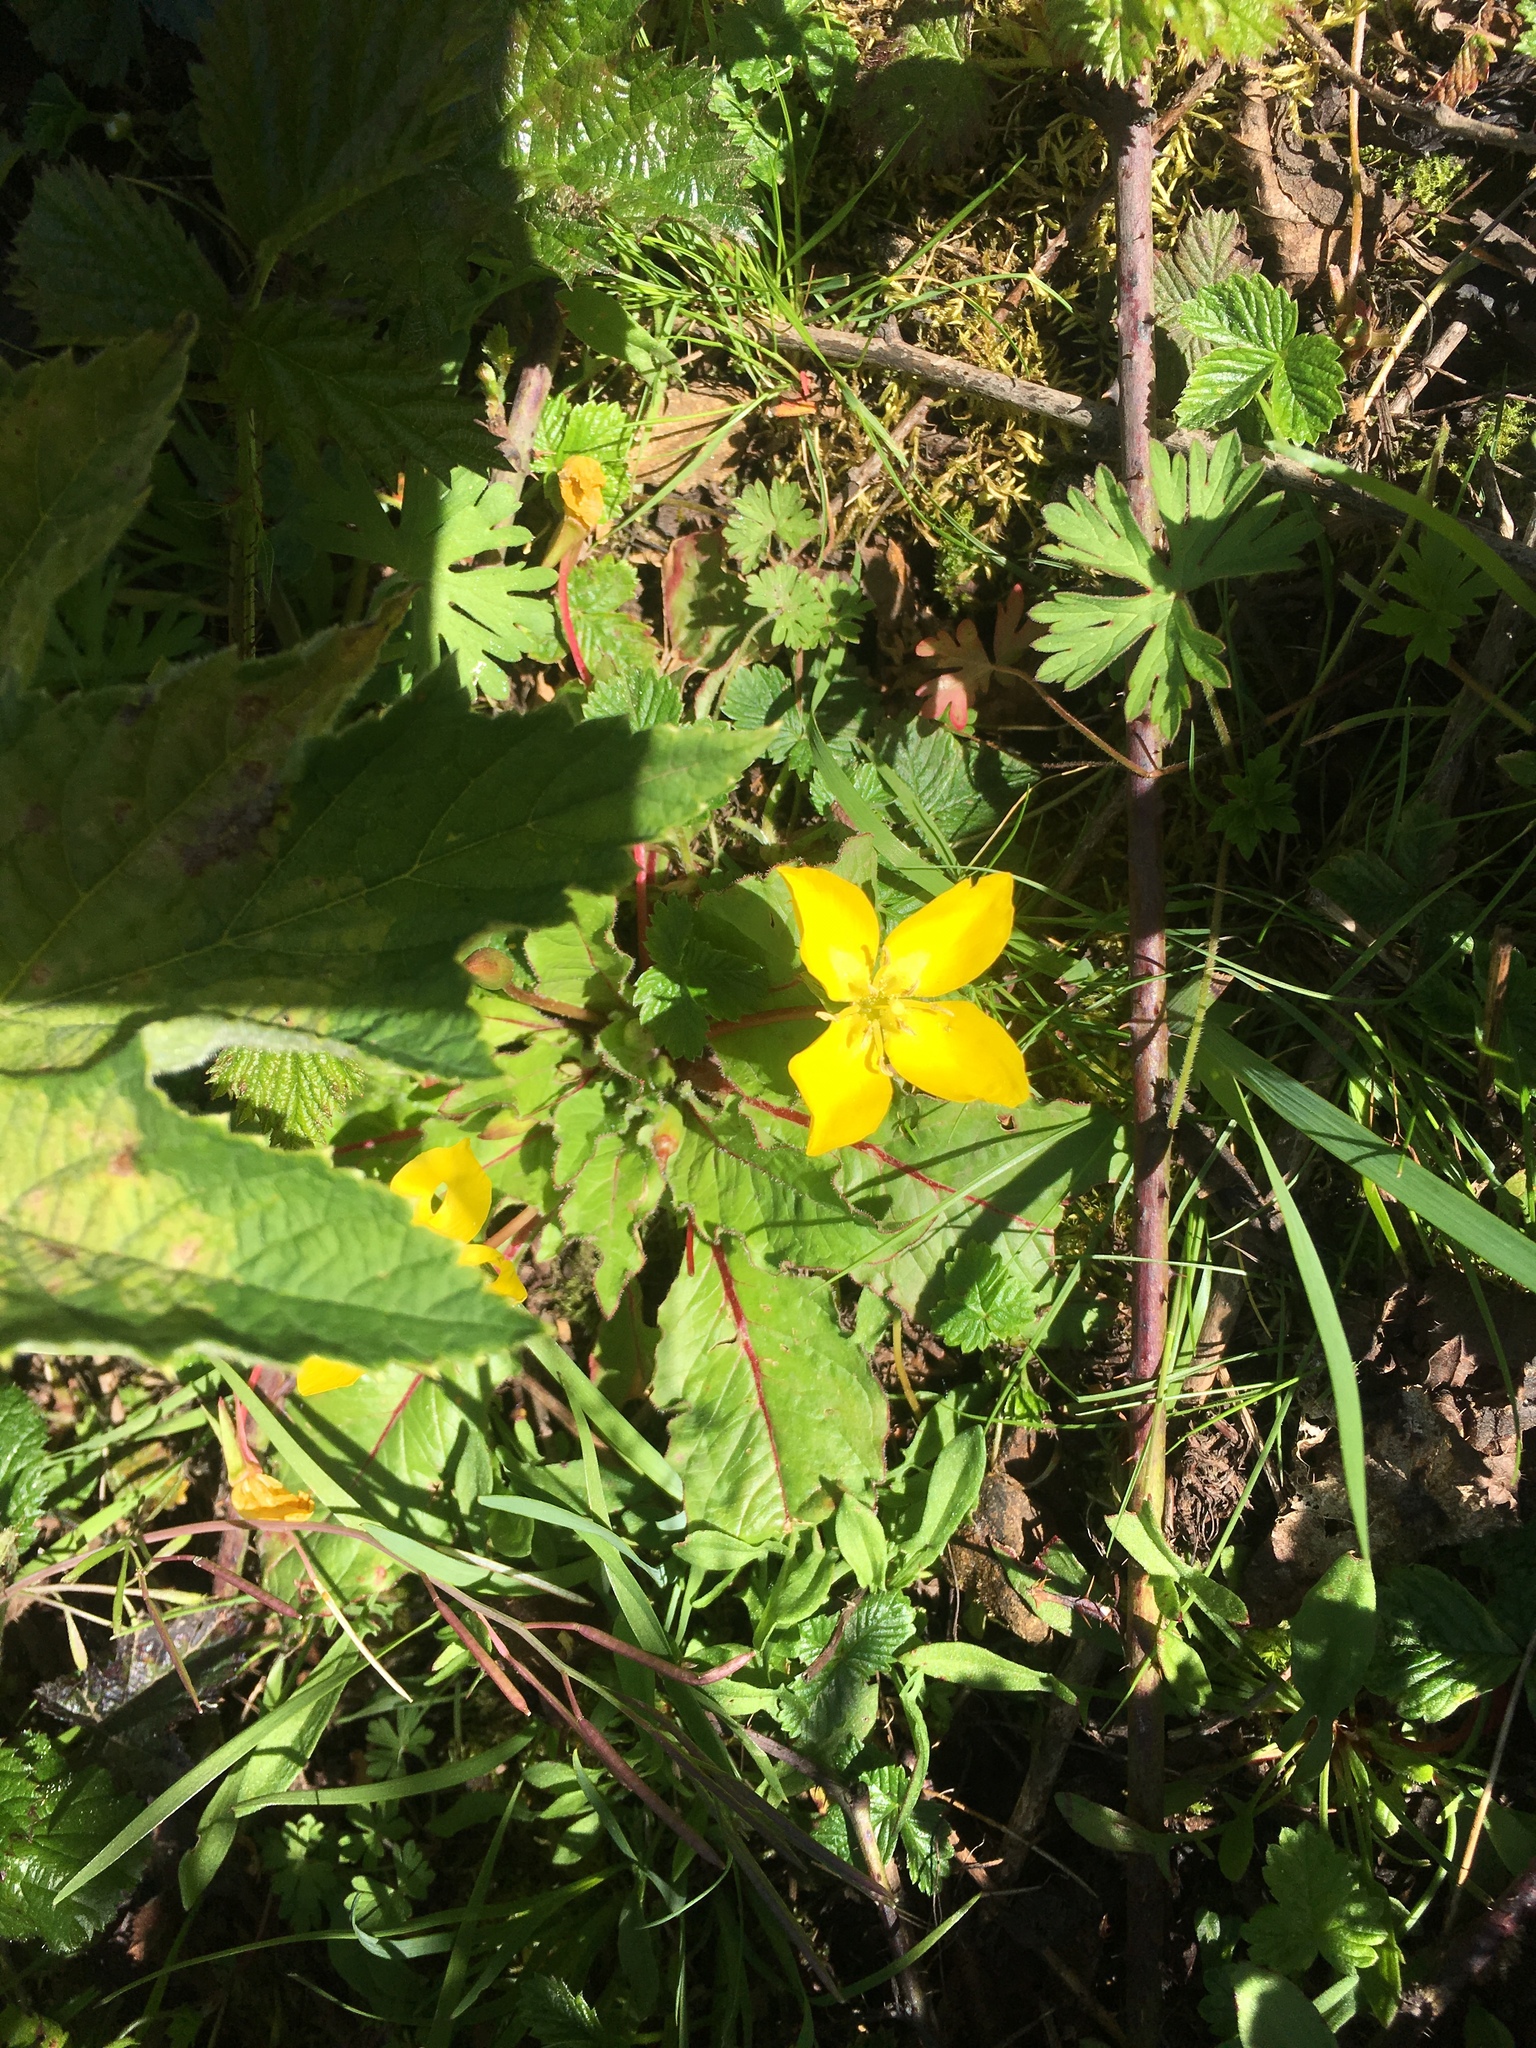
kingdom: Plantae
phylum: Tracheophyta
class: Magnoliopsida
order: Myrtales
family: Onagraceae
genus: Taraxia
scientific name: Taraxia ovata
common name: Goldeneggs
